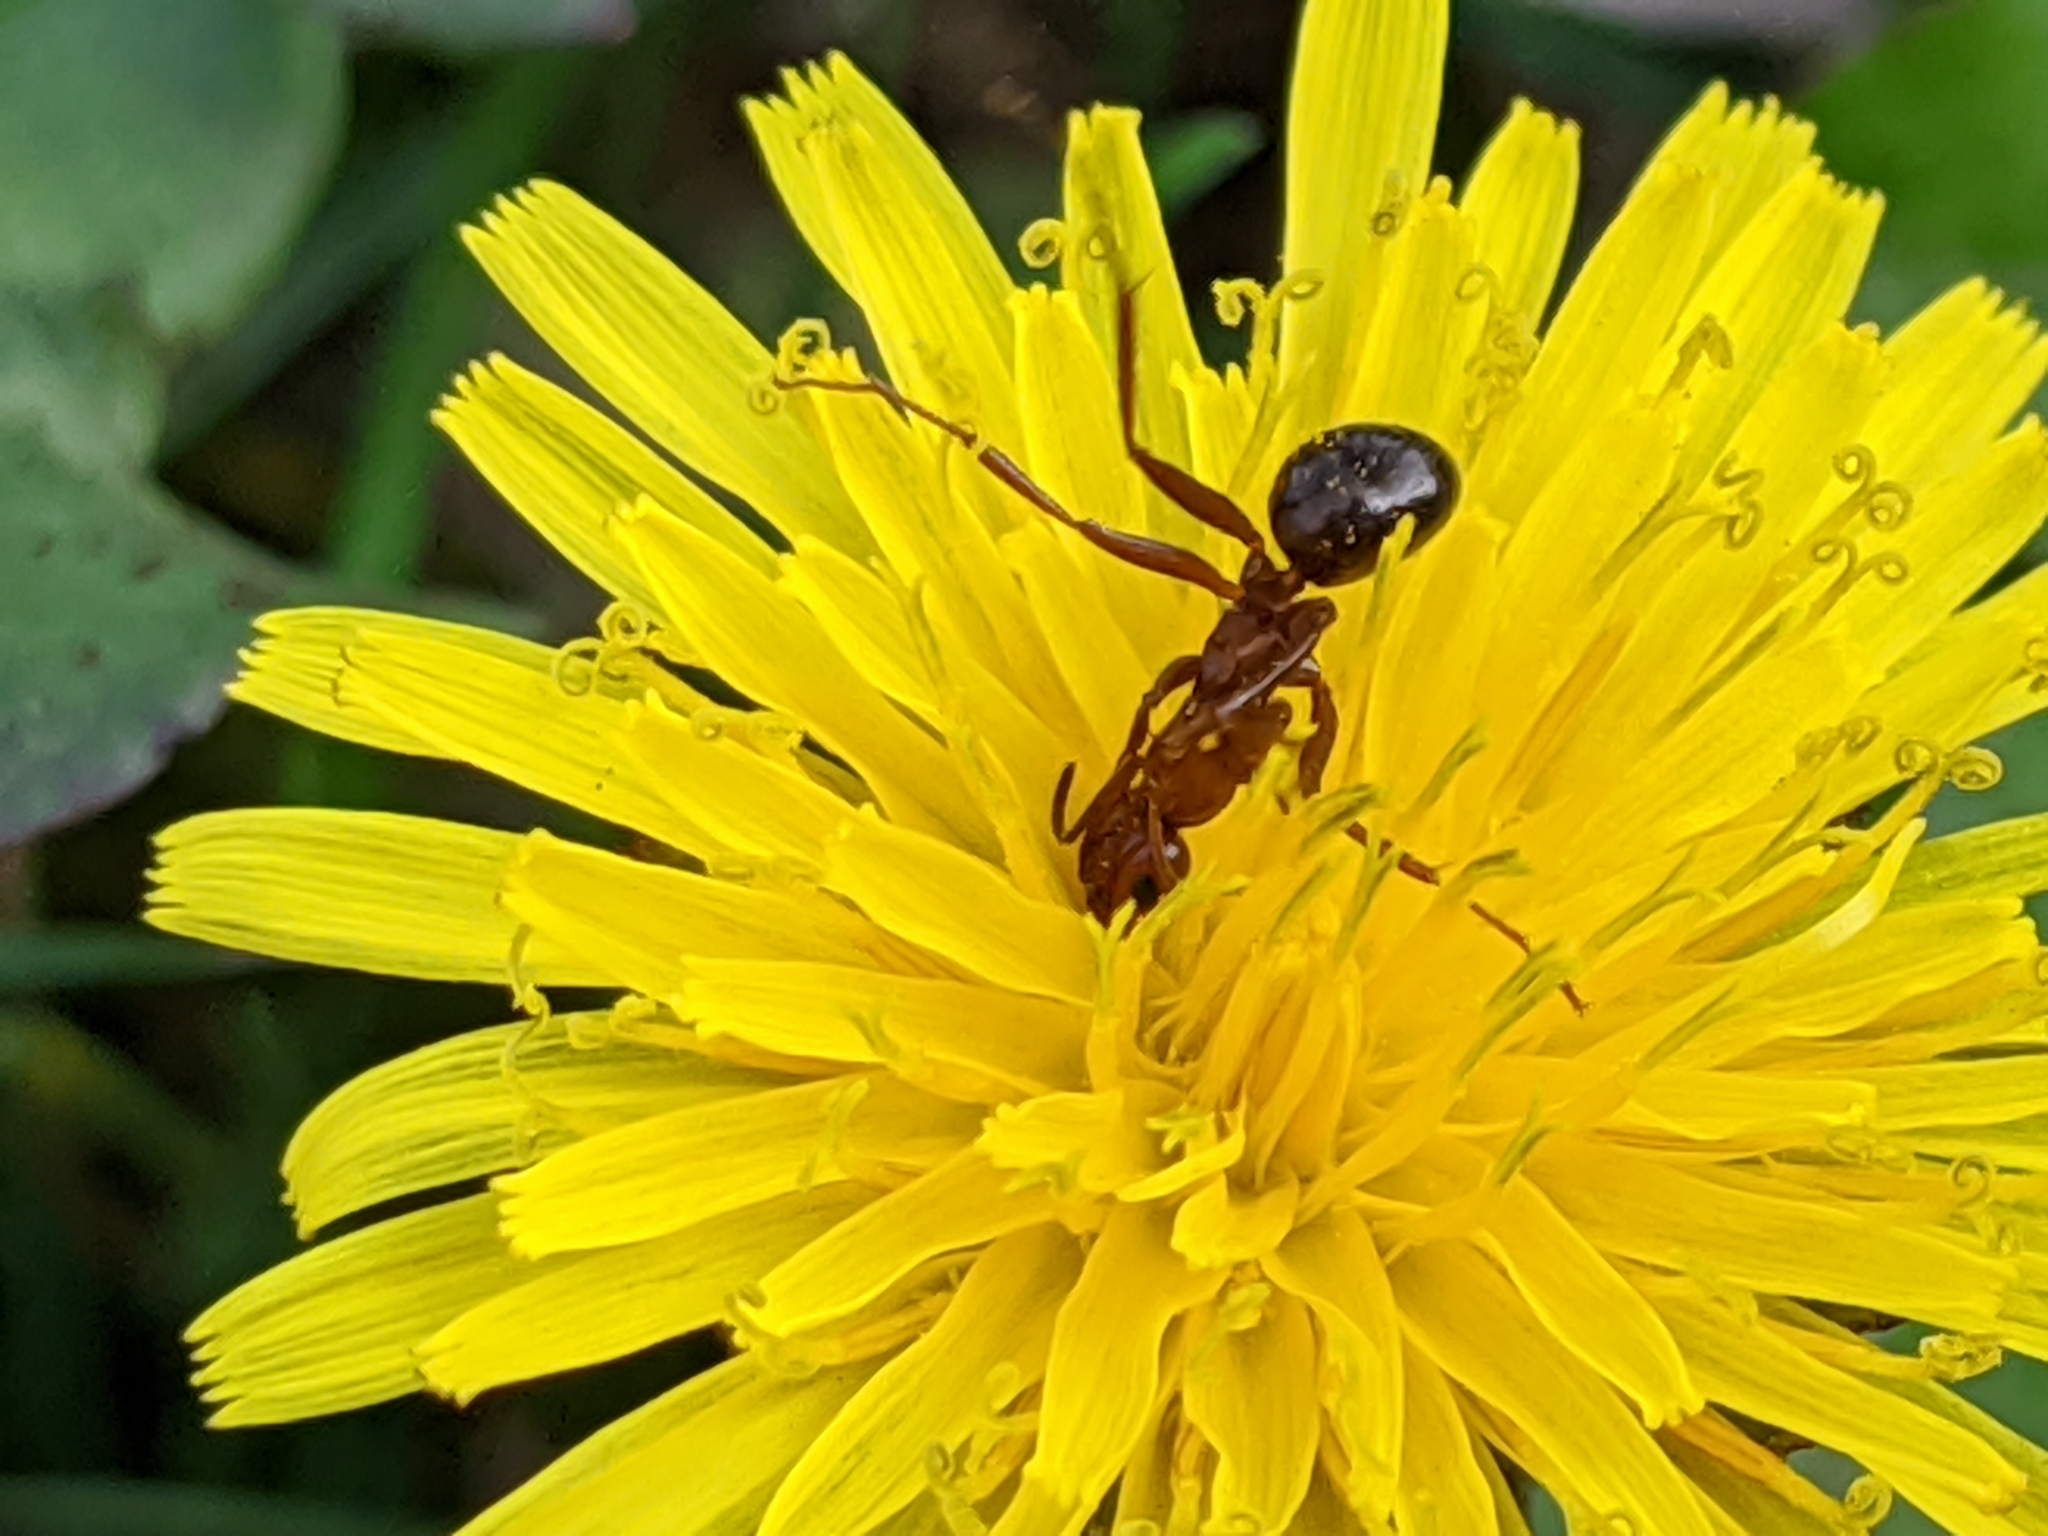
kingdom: Animalia
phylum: Arthropoda
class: Insecta
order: Hymenoptera
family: Formicidae
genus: Formica
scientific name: Formica incerta
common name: Uncertain field ant
